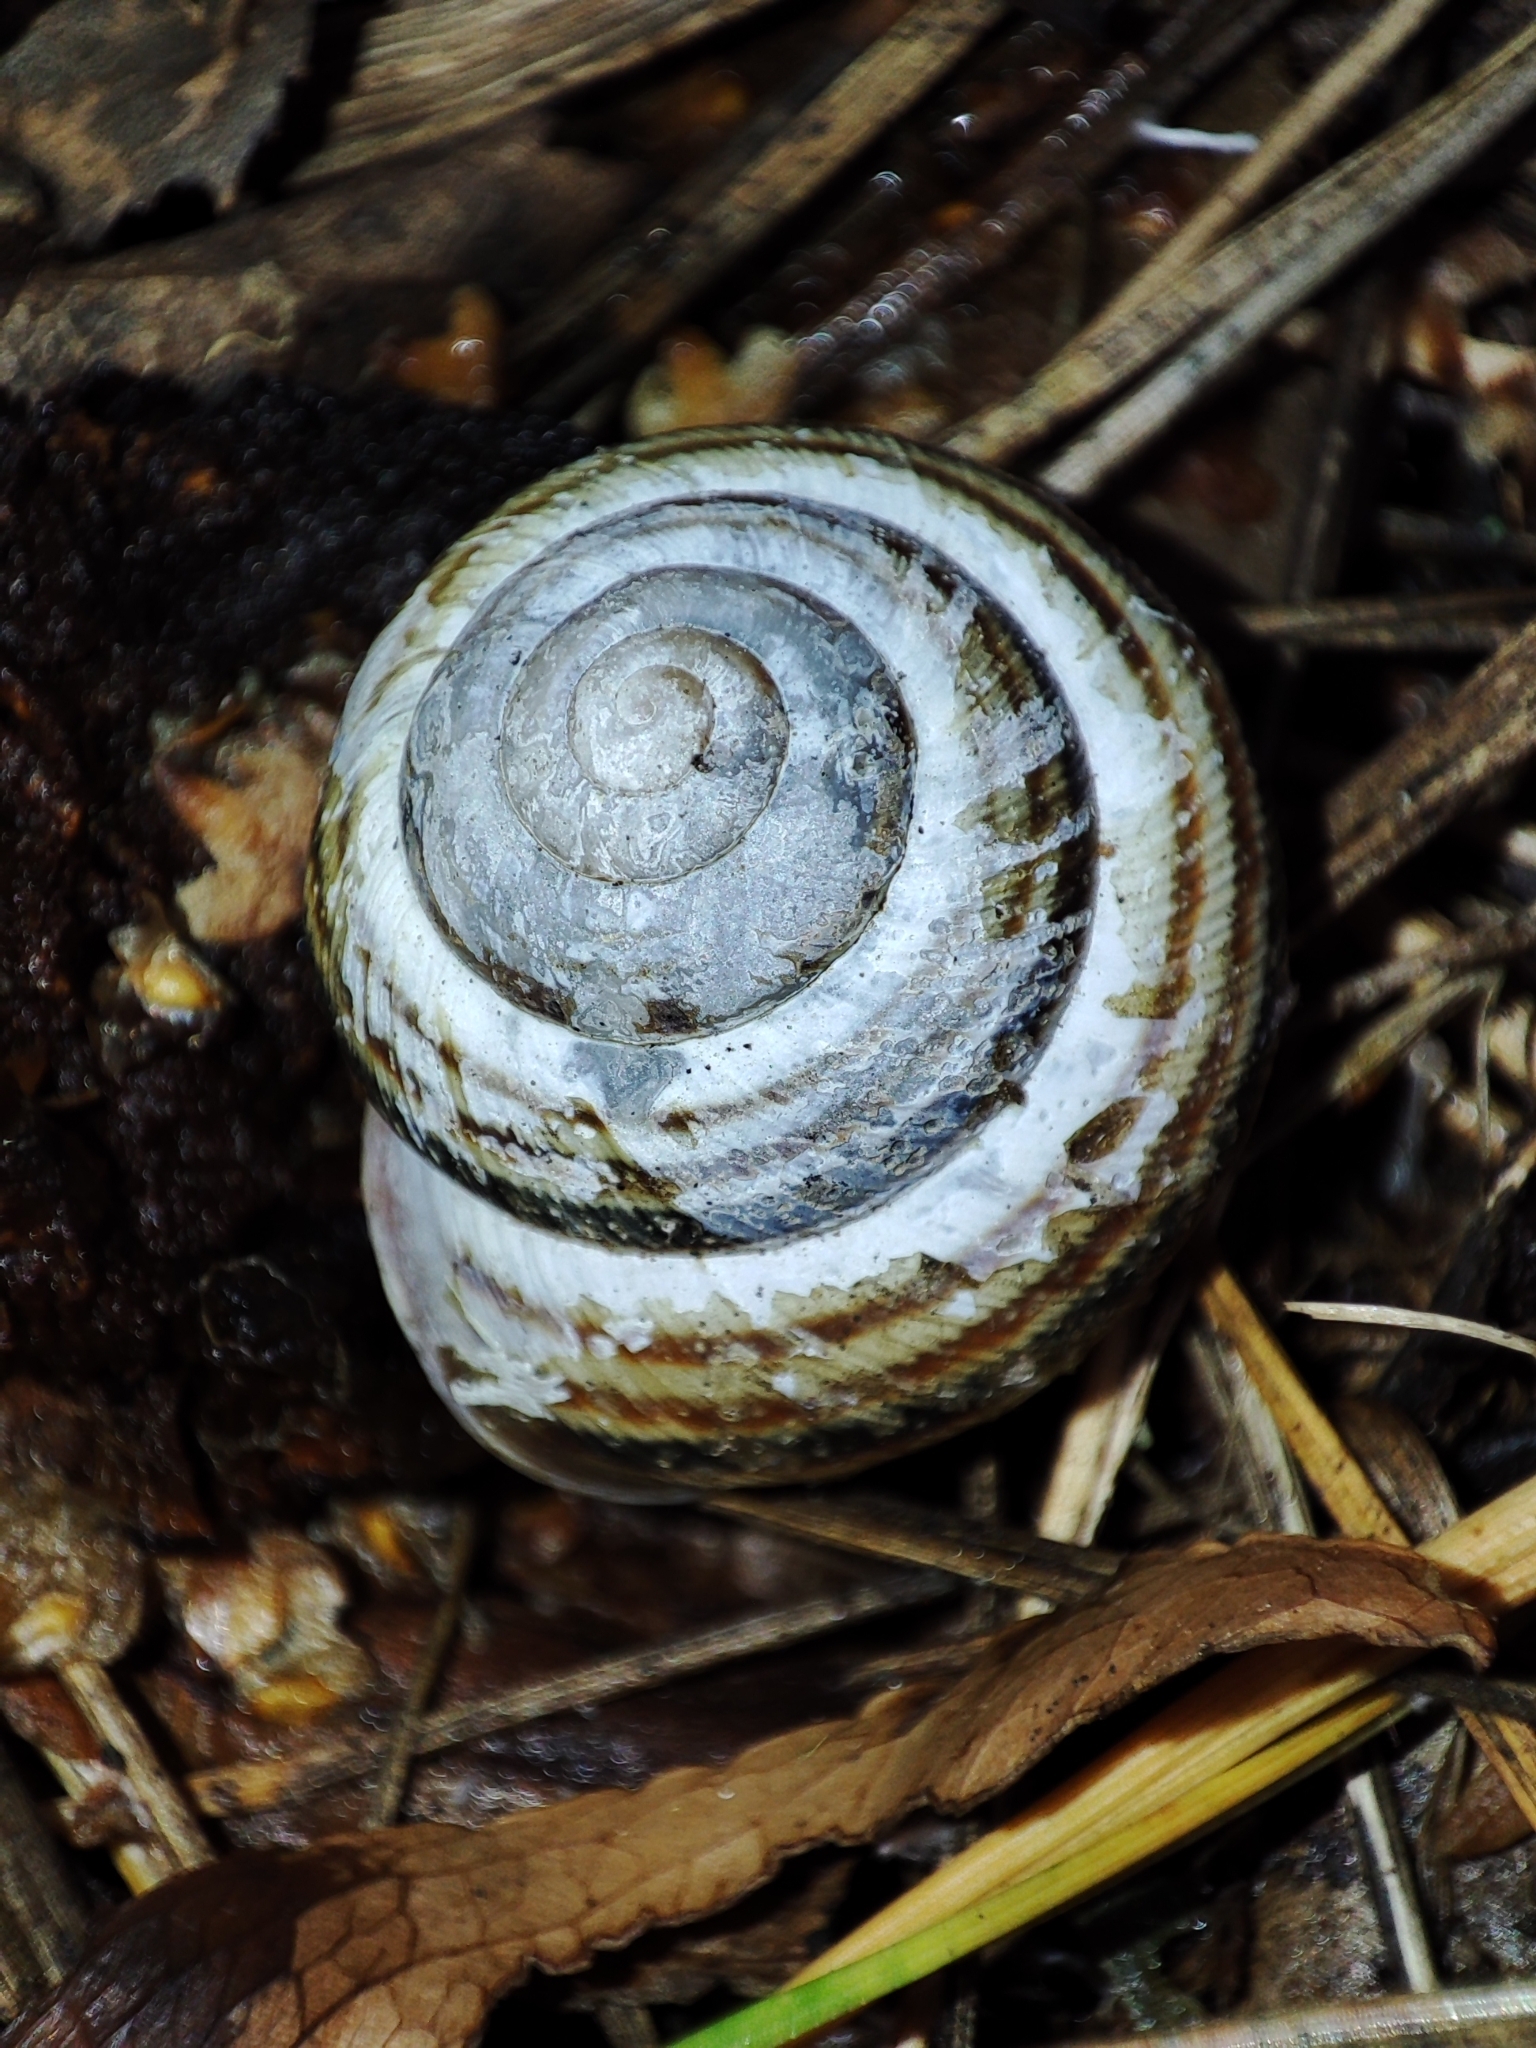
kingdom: Animalia
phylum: Mollusca
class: Gastropoda
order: Stylommatophora
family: Helicidae
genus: Caucasotachea
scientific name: Caucasotachea vindobonensis
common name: European helicid land snail
